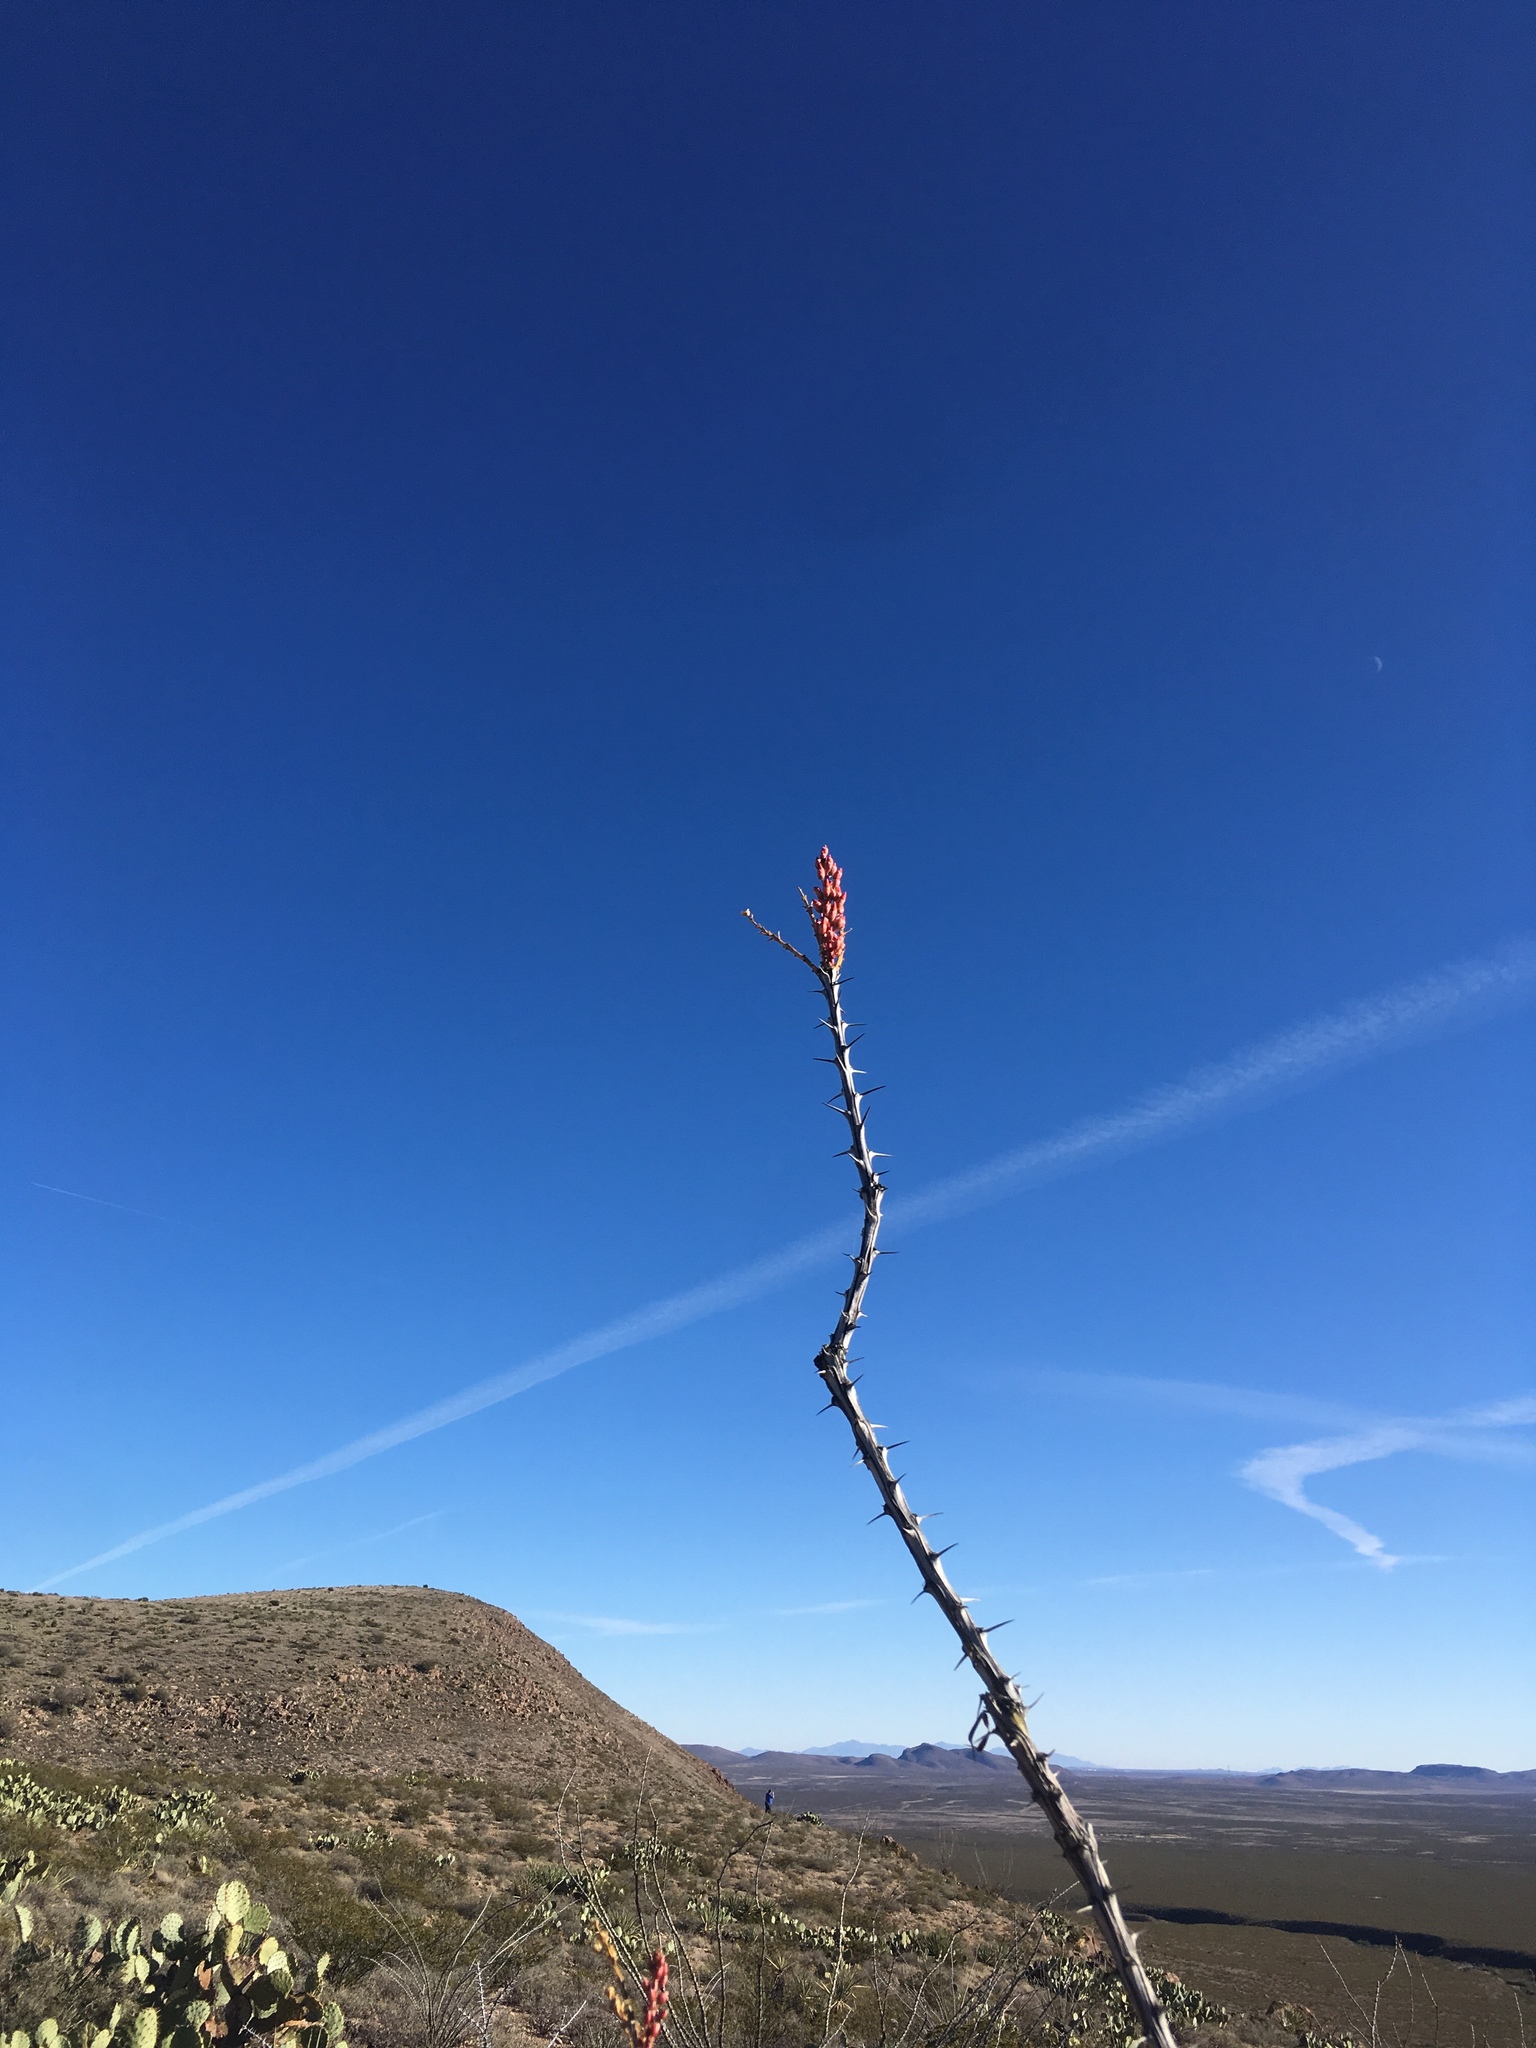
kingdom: Plantae
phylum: Tracheophyta
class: Magnoliopsida
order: Ericales
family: Fouquieriaceae
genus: Fouquieria
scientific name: Fouquieria splendens
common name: Vine-cactus
